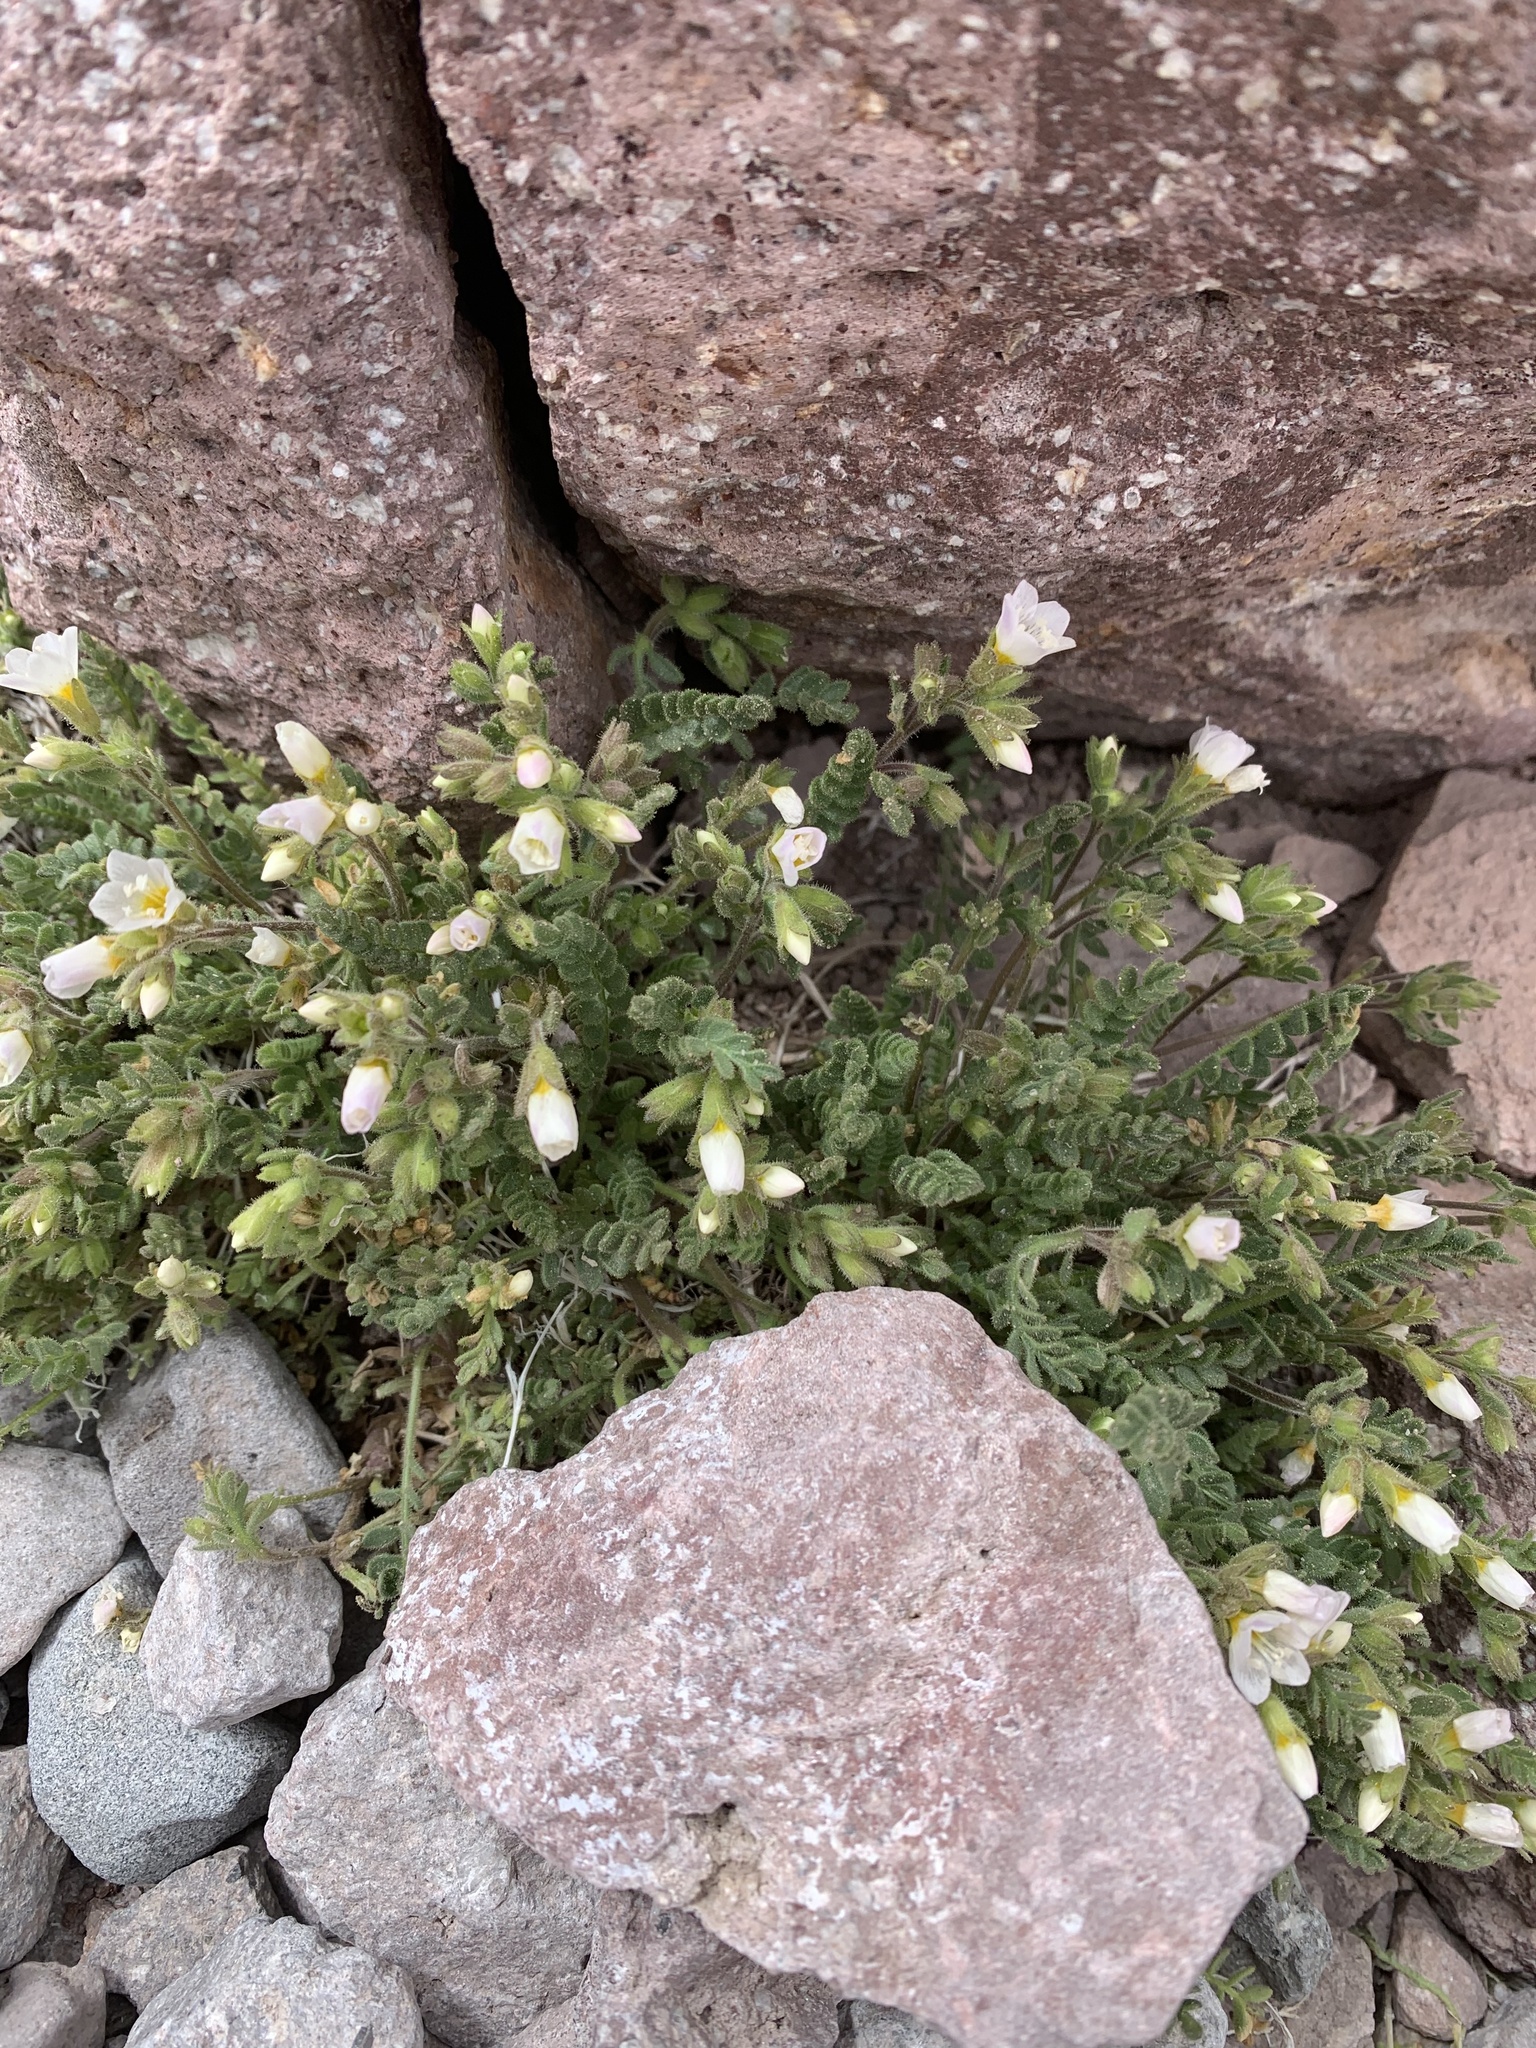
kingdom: Plantae
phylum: Tracheophyta
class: Magnoliopsida
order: Ericales
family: Polemoniaceae
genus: Polemonium
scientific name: Polemonium pulcherrimum
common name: Short jacob's-ladder
